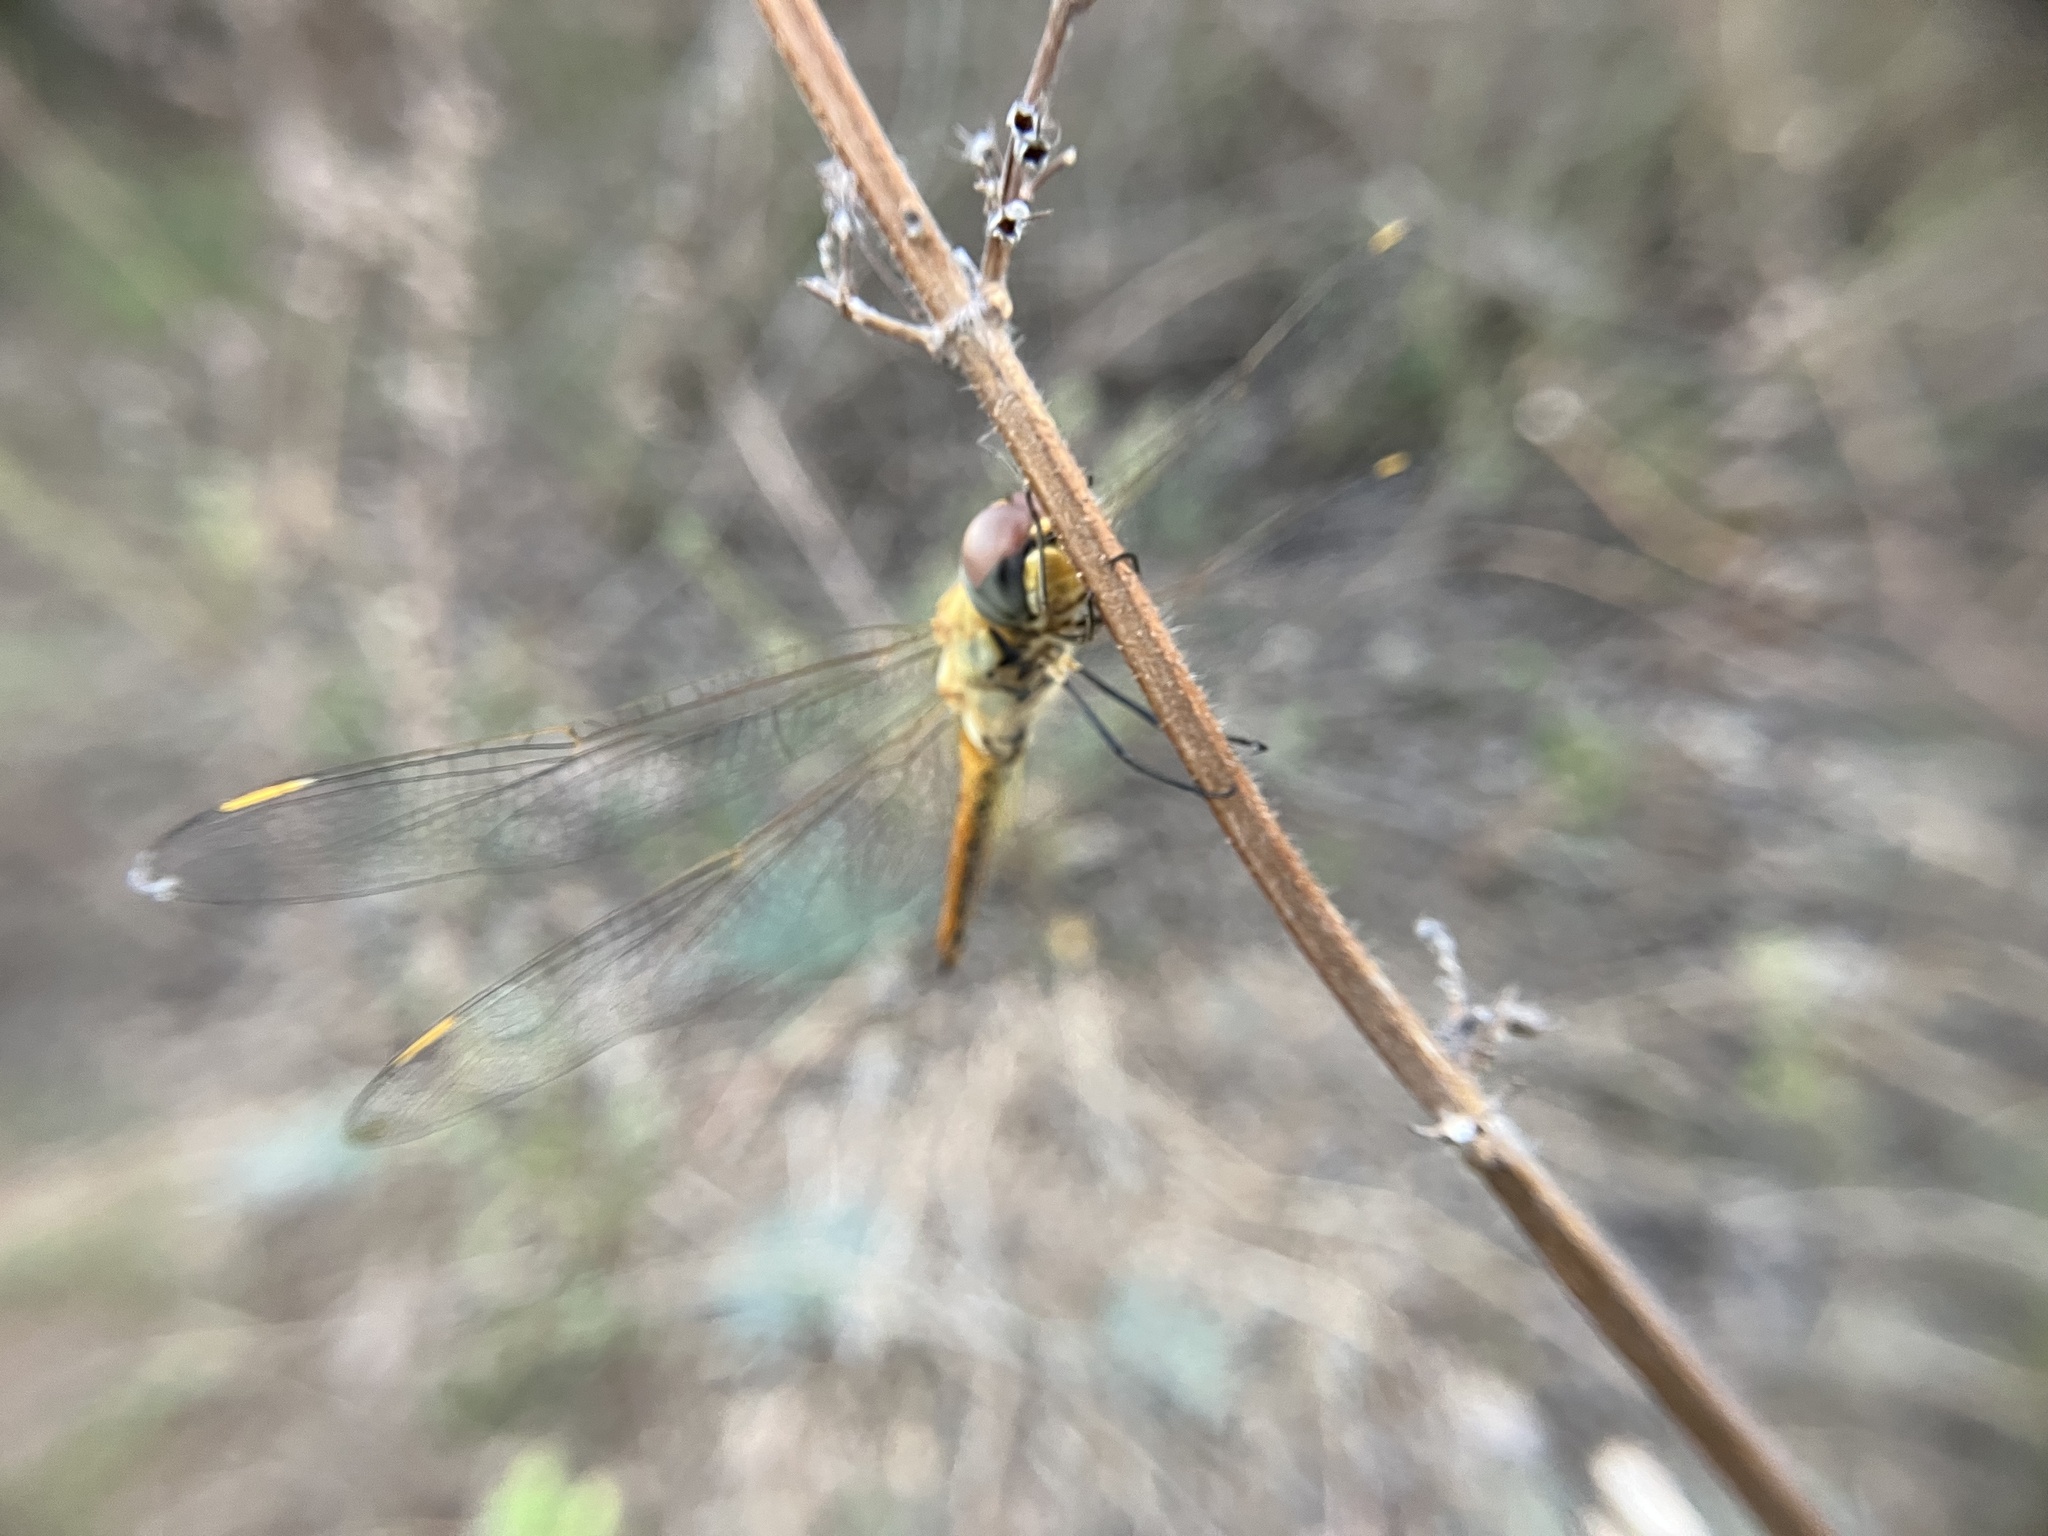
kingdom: Animalia
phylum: Arthropoda
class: Insecta
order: Odonata
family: Libellulidae
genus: Pantala
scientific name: Pantala flavescens
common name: Wandering glider
